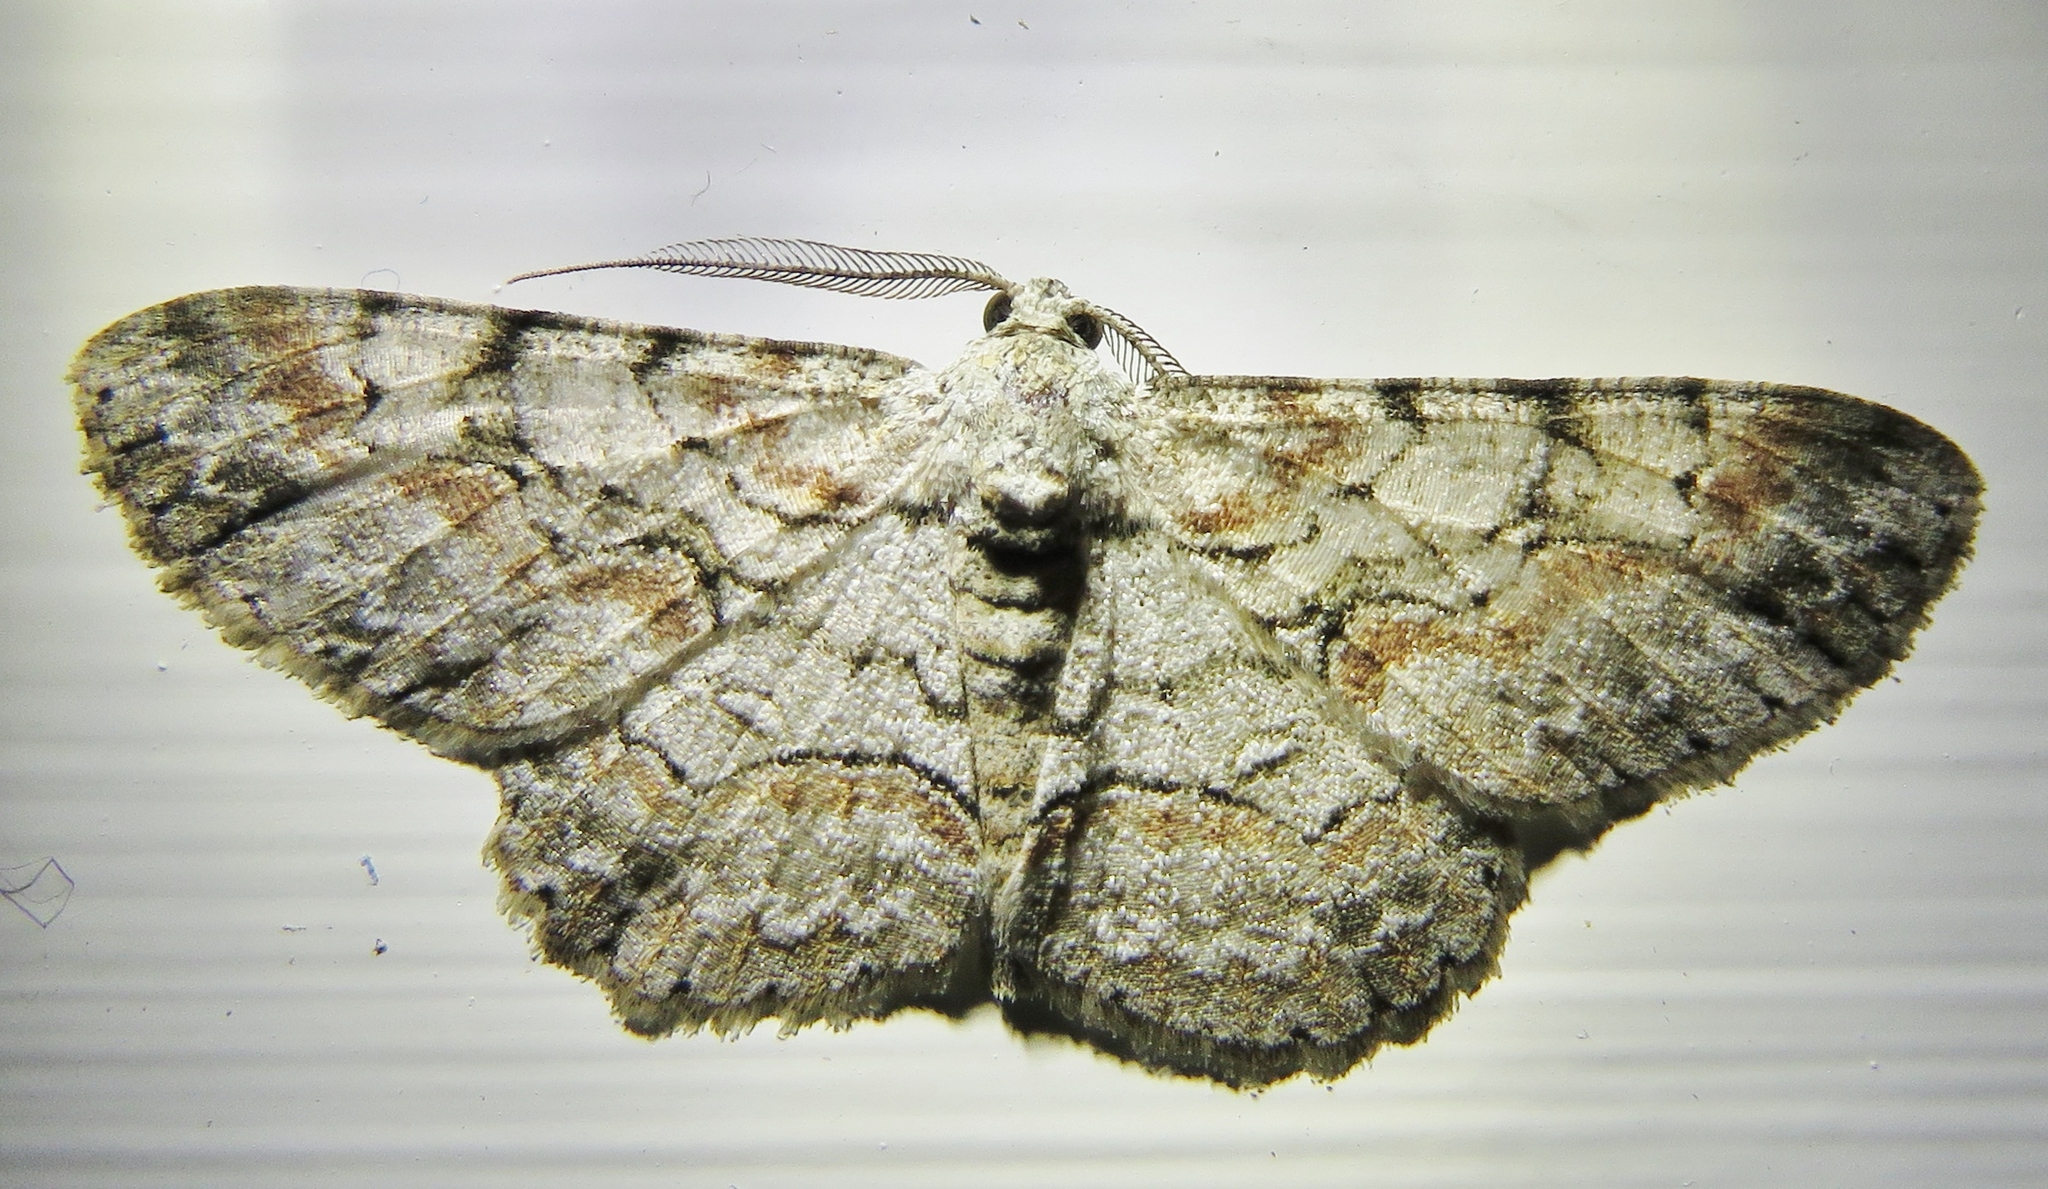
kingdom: Animalia
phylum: Arthropoda
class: Insecta
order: Lepidoptera
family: Geometridae
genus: Iridopsis
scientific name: Iridopsis defectaria
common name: Brown-shaded gray
